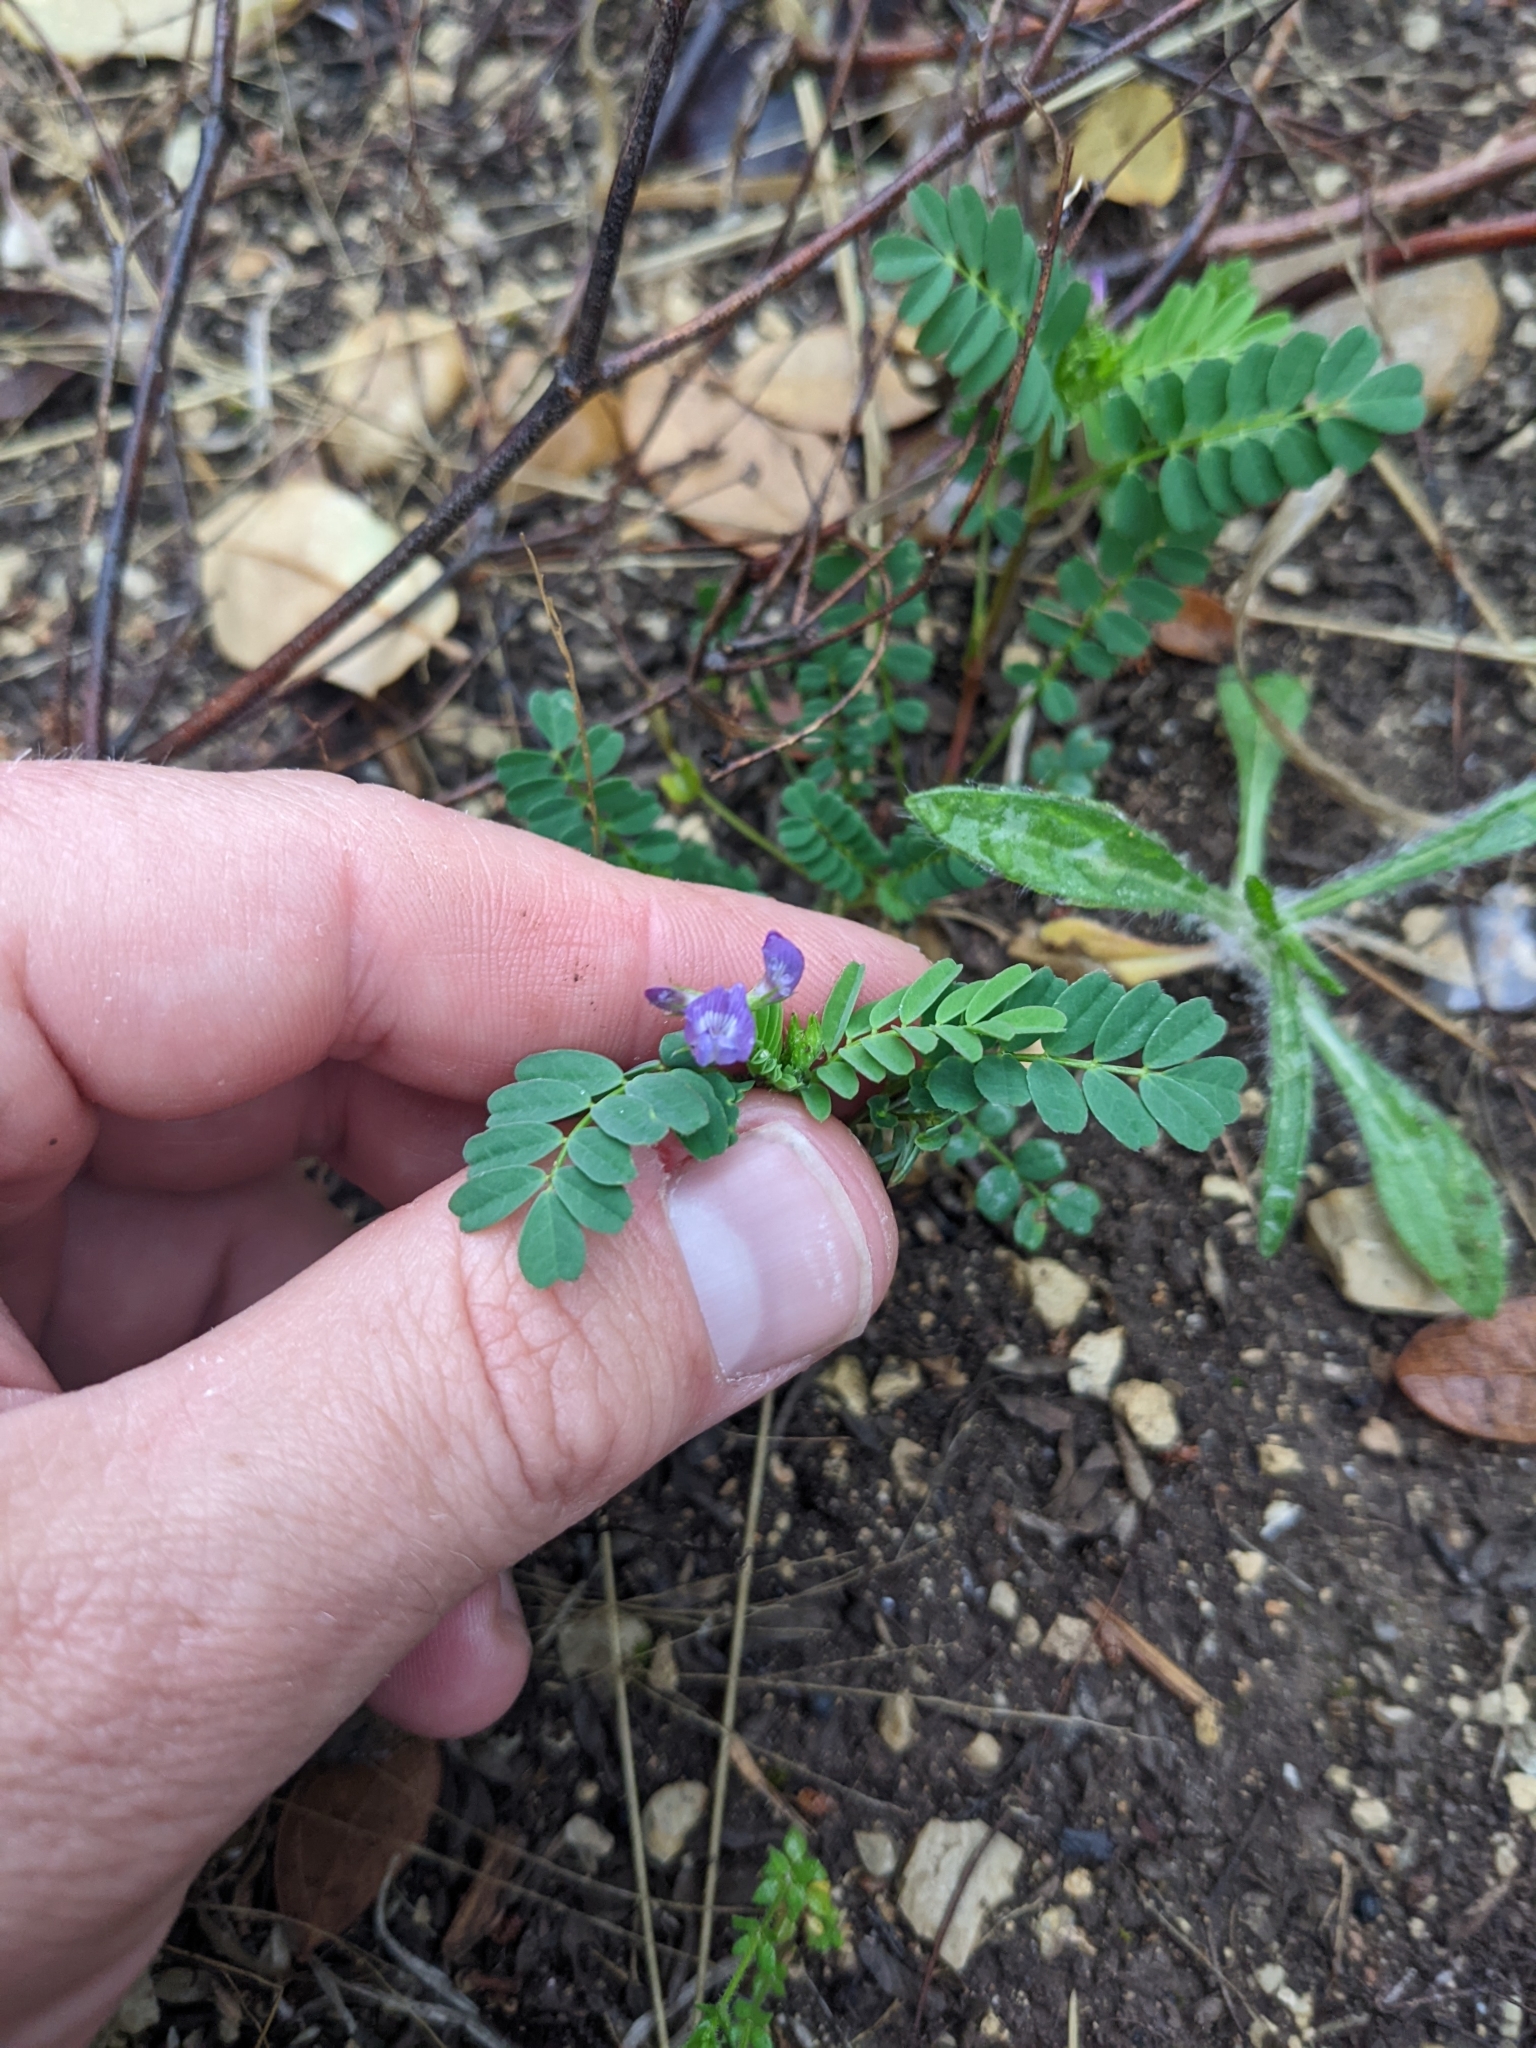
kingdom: Plantae
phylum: Tracheophyta
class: Magnoliopsida
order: Fabales
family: Fabaceae
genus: Astragalus
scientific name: Astragalus nuttallianus
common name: Smallflowered milkvetch
